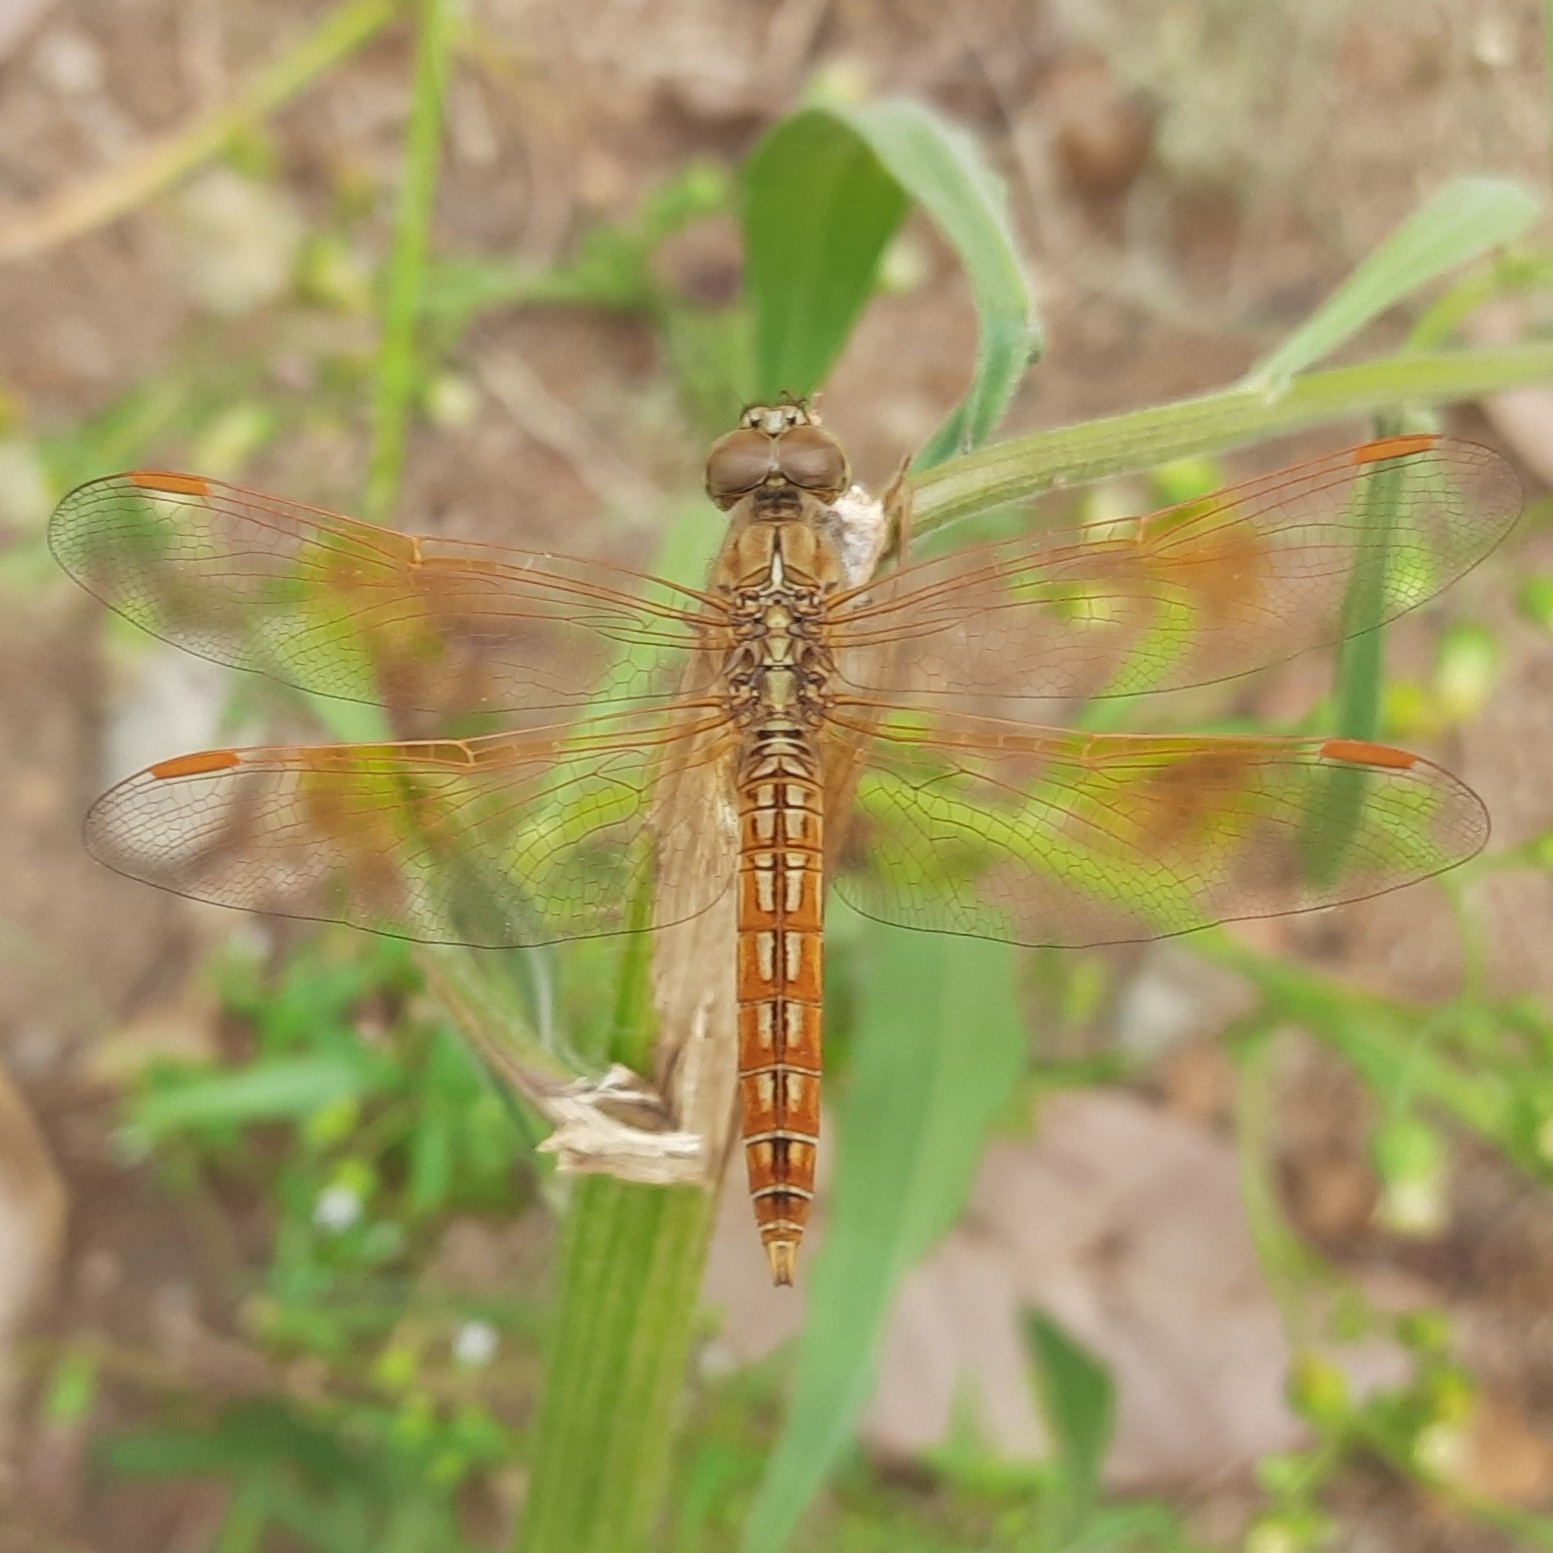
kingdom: Animalia
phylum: Arthropoda
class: Insecta
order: Odonata
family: Libellulidae
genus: Brachythemis
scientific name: Brachythemis contaminata
